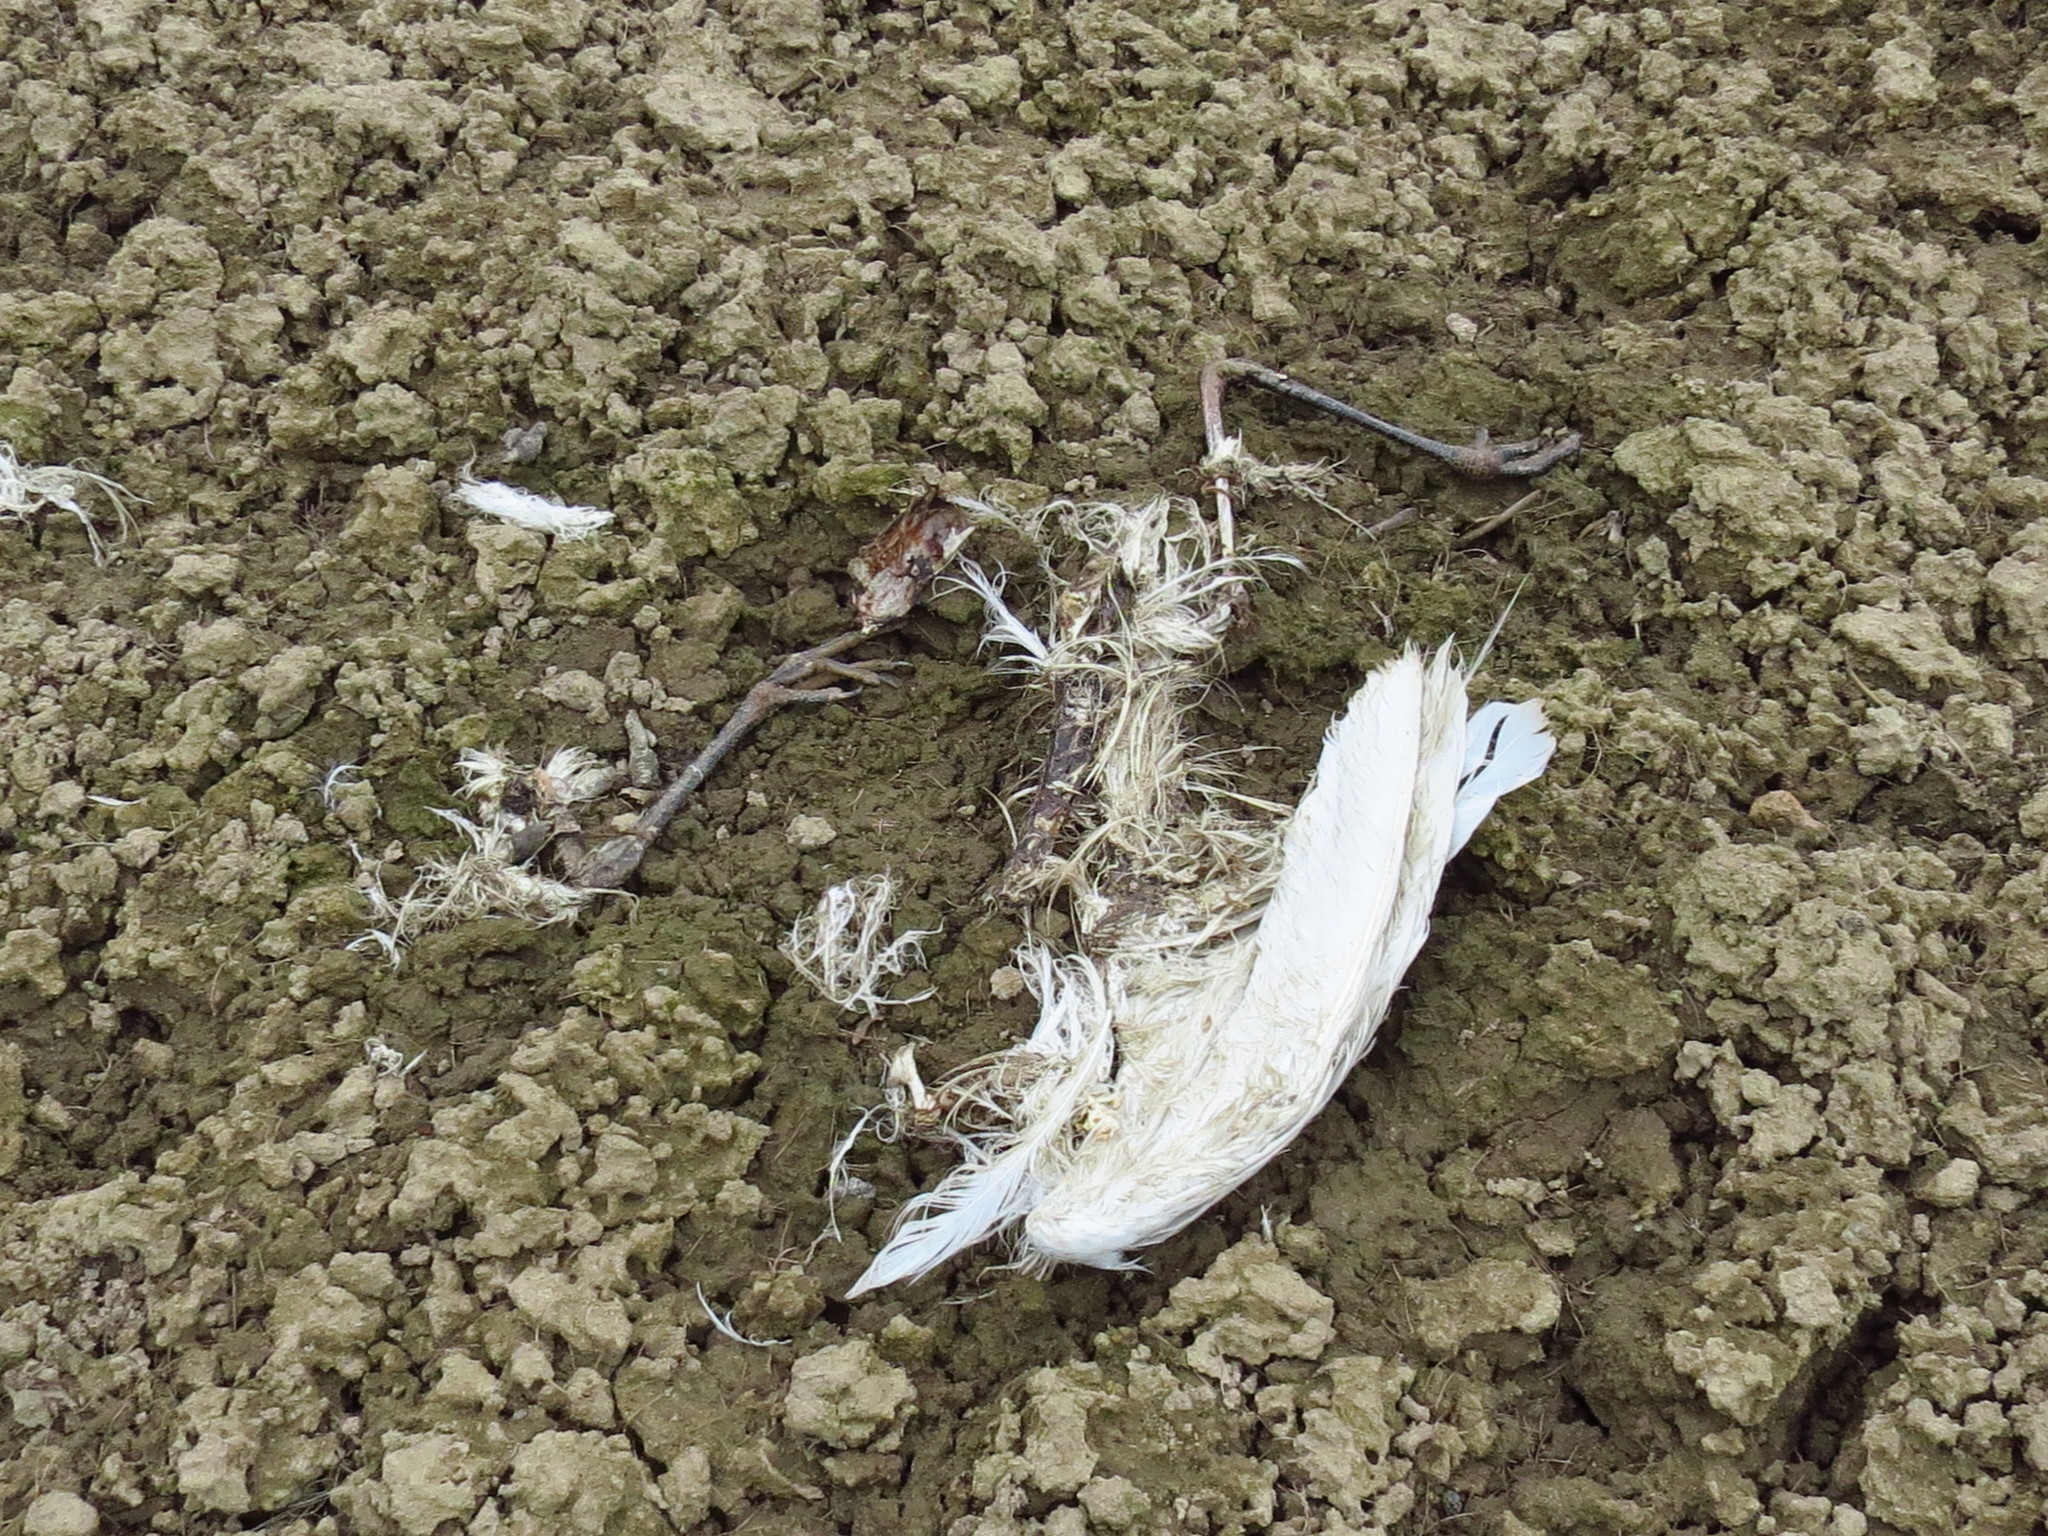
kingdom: Animalia
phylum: Chordata
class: Aves
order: Pelecaniformes
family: Ardeidae
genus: Ardea
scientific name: Ardea alba
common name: Great egret
